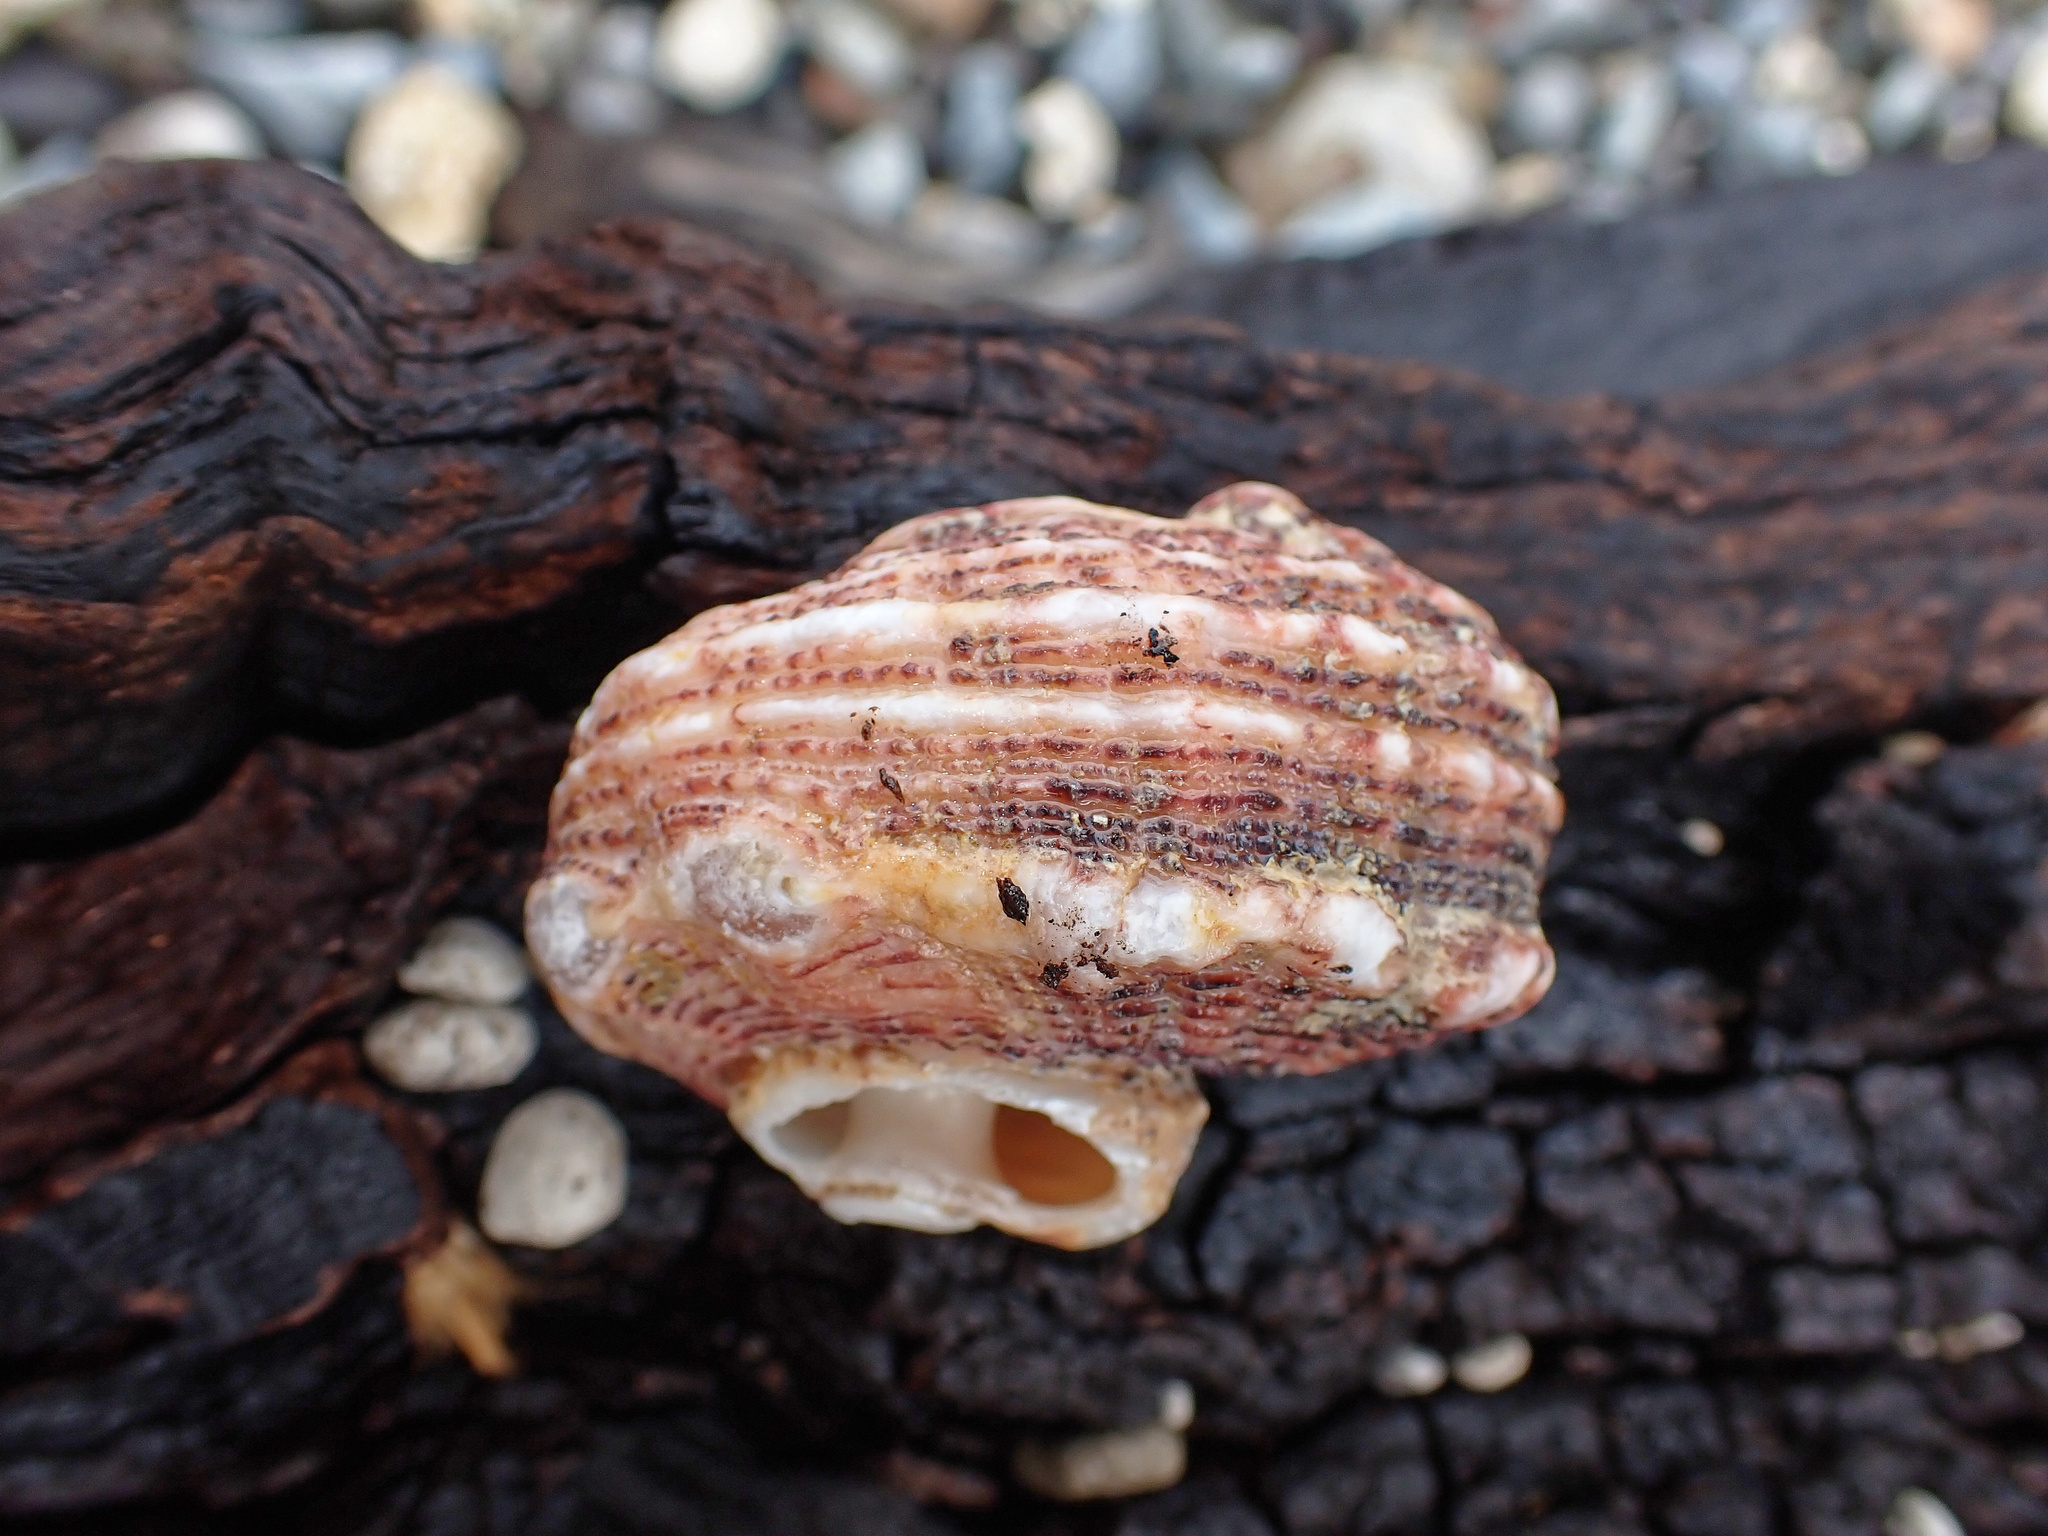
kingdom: Animalia
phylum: Mollusca
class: Gastropoda
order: Trochida
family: Angariidae
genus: Angaria
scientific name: Angaria delphinus
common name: Dolphin shell
